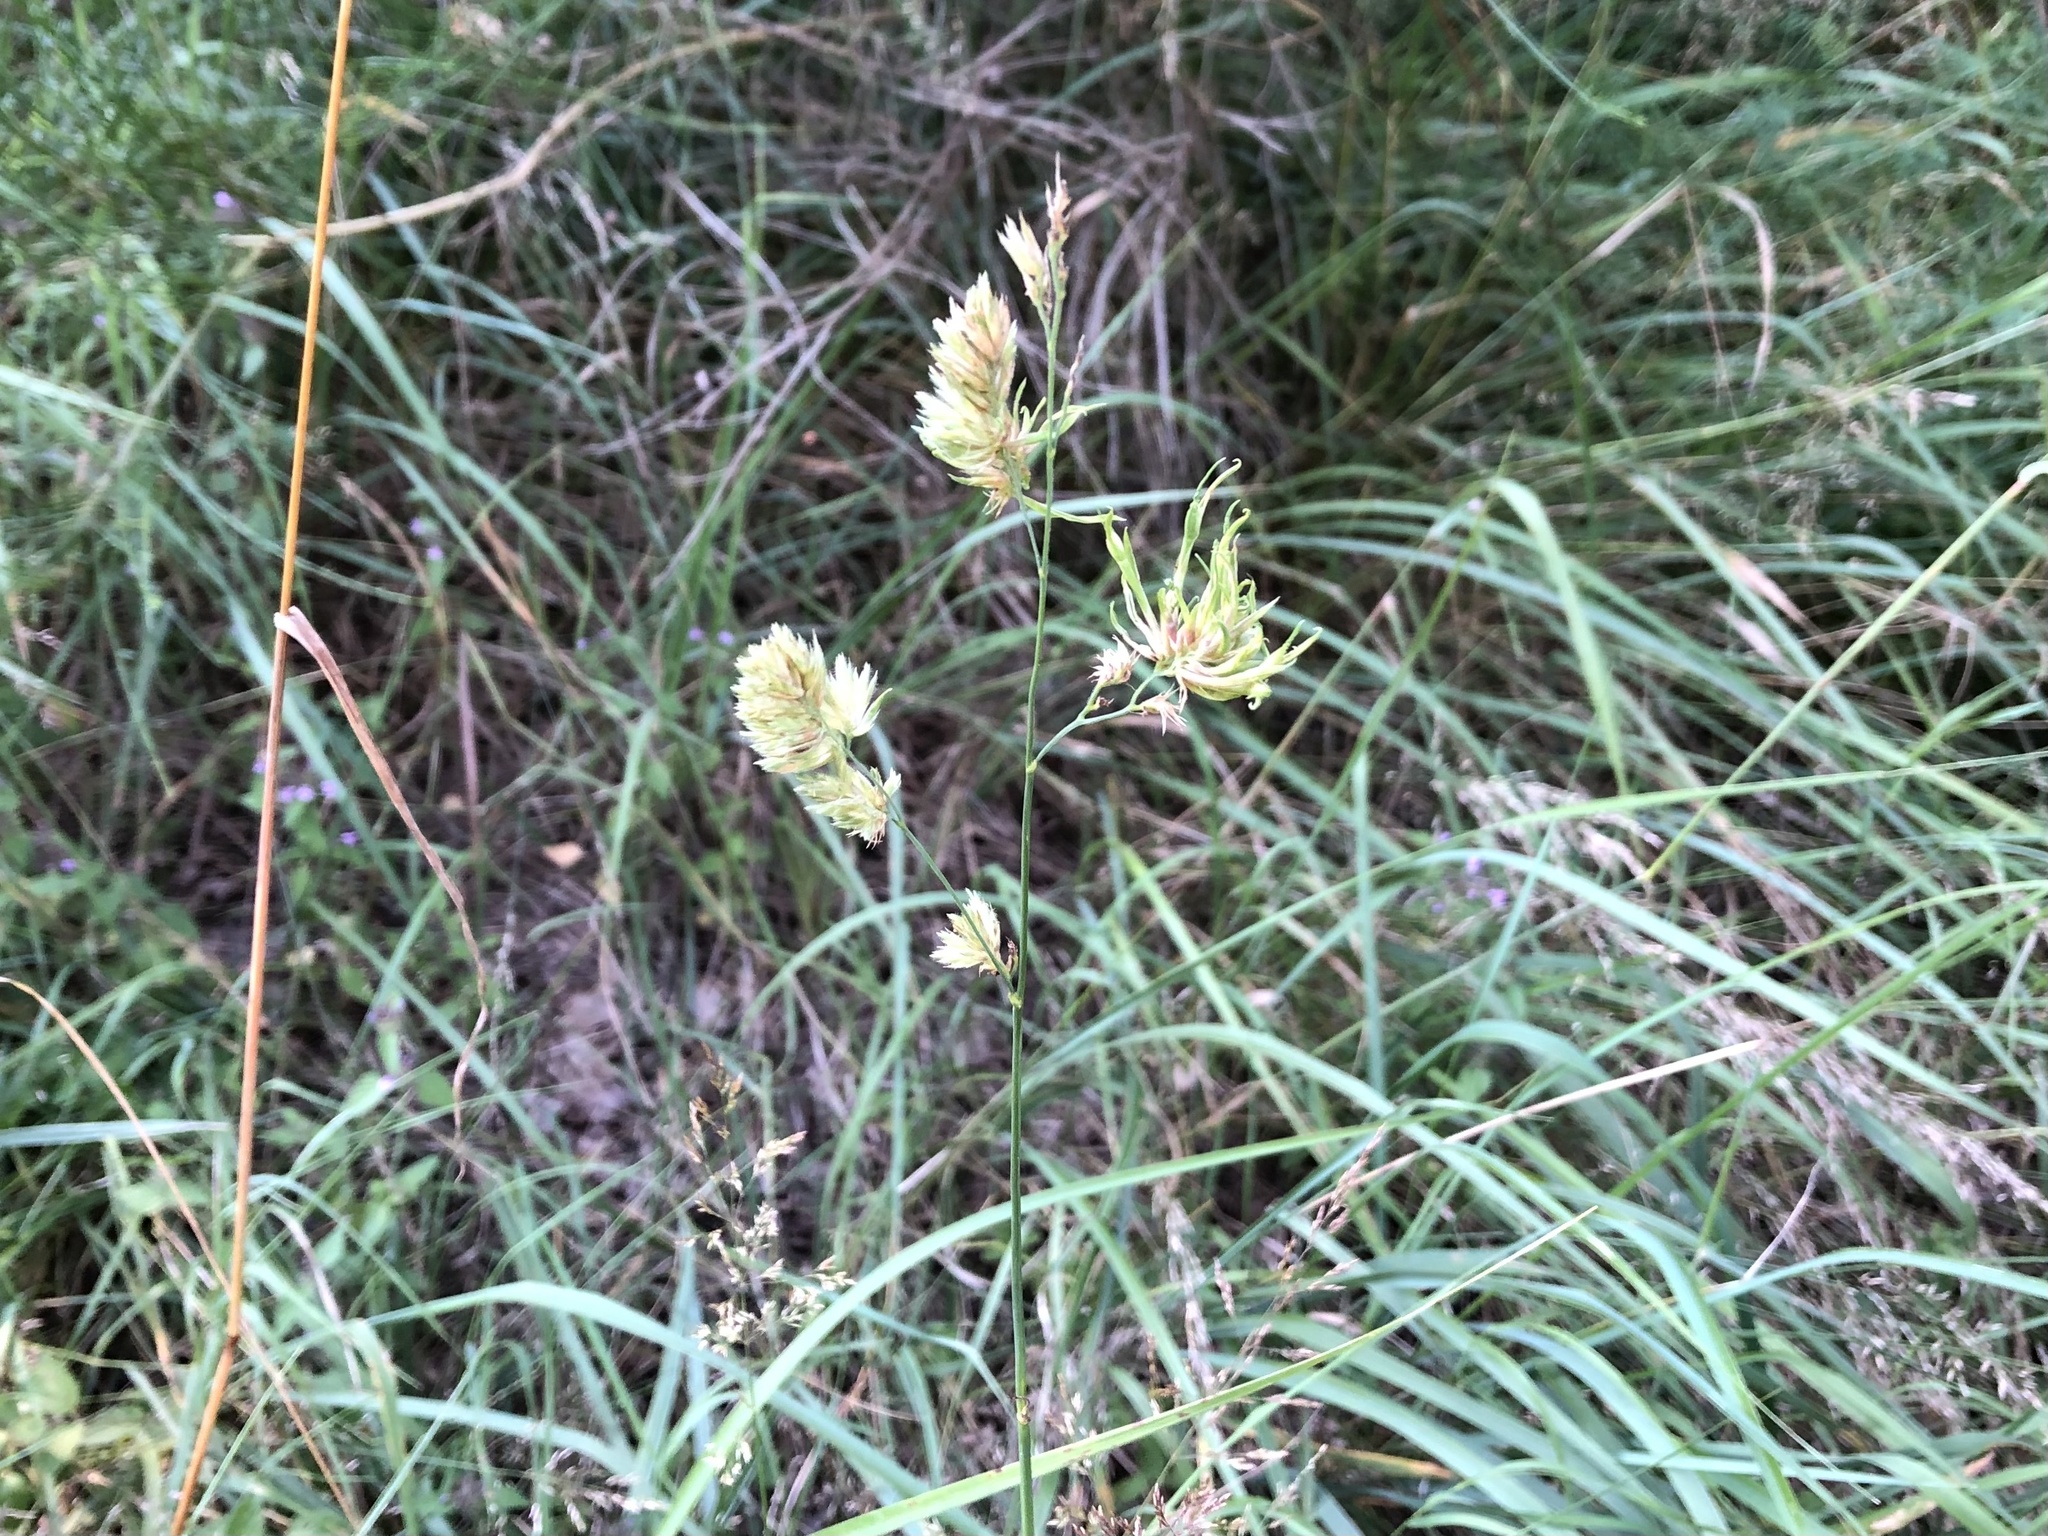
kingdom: Plantae
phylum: Tracheophyta
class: Liliopsida
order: Poales
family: Poaceae
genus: Dactylis
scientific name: Dactylis glomerata
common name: Orchardgrass
